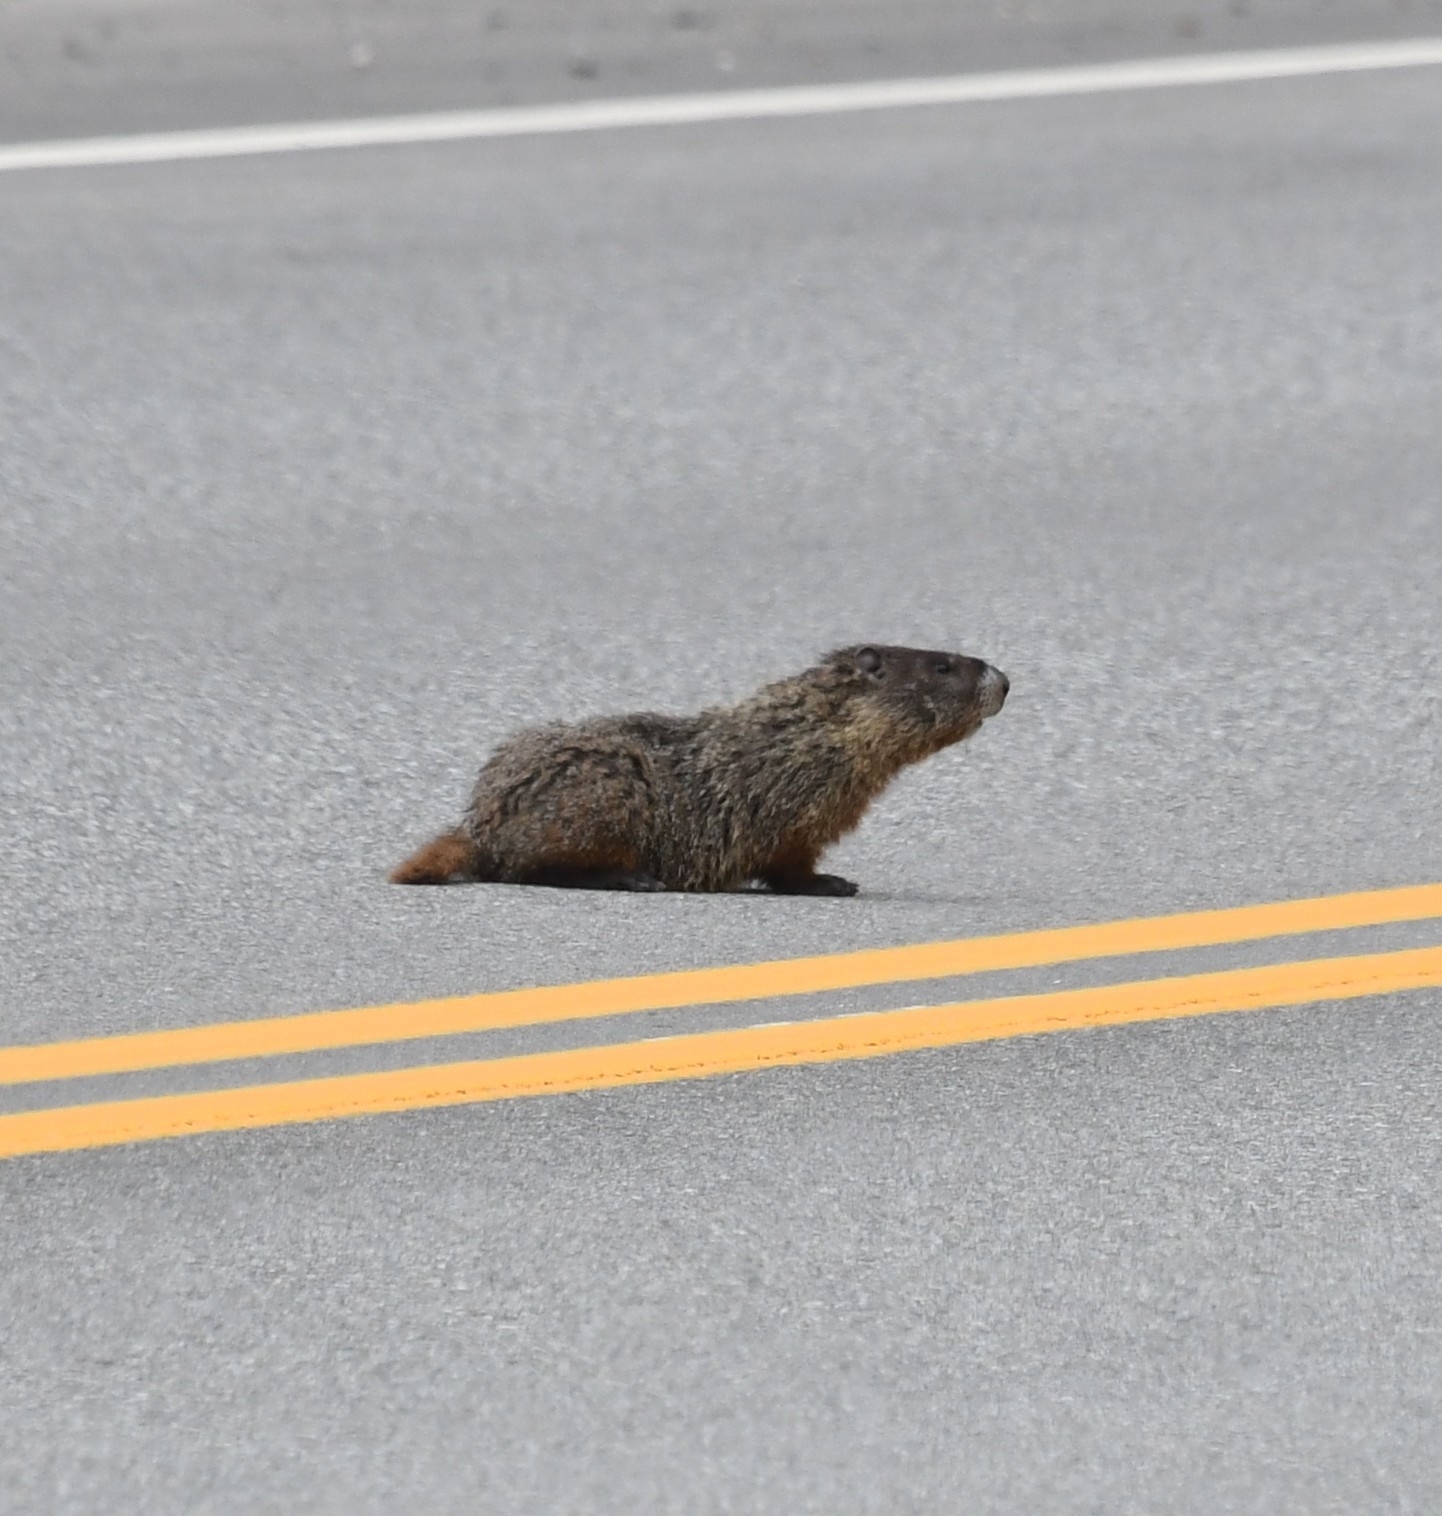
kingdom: Animalia
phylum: Chordata
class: Mammalia
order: Rodentia
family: Sciuridae
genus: Marmota
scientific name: Marmota flaviventris
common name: Yellow-bellied marmot
